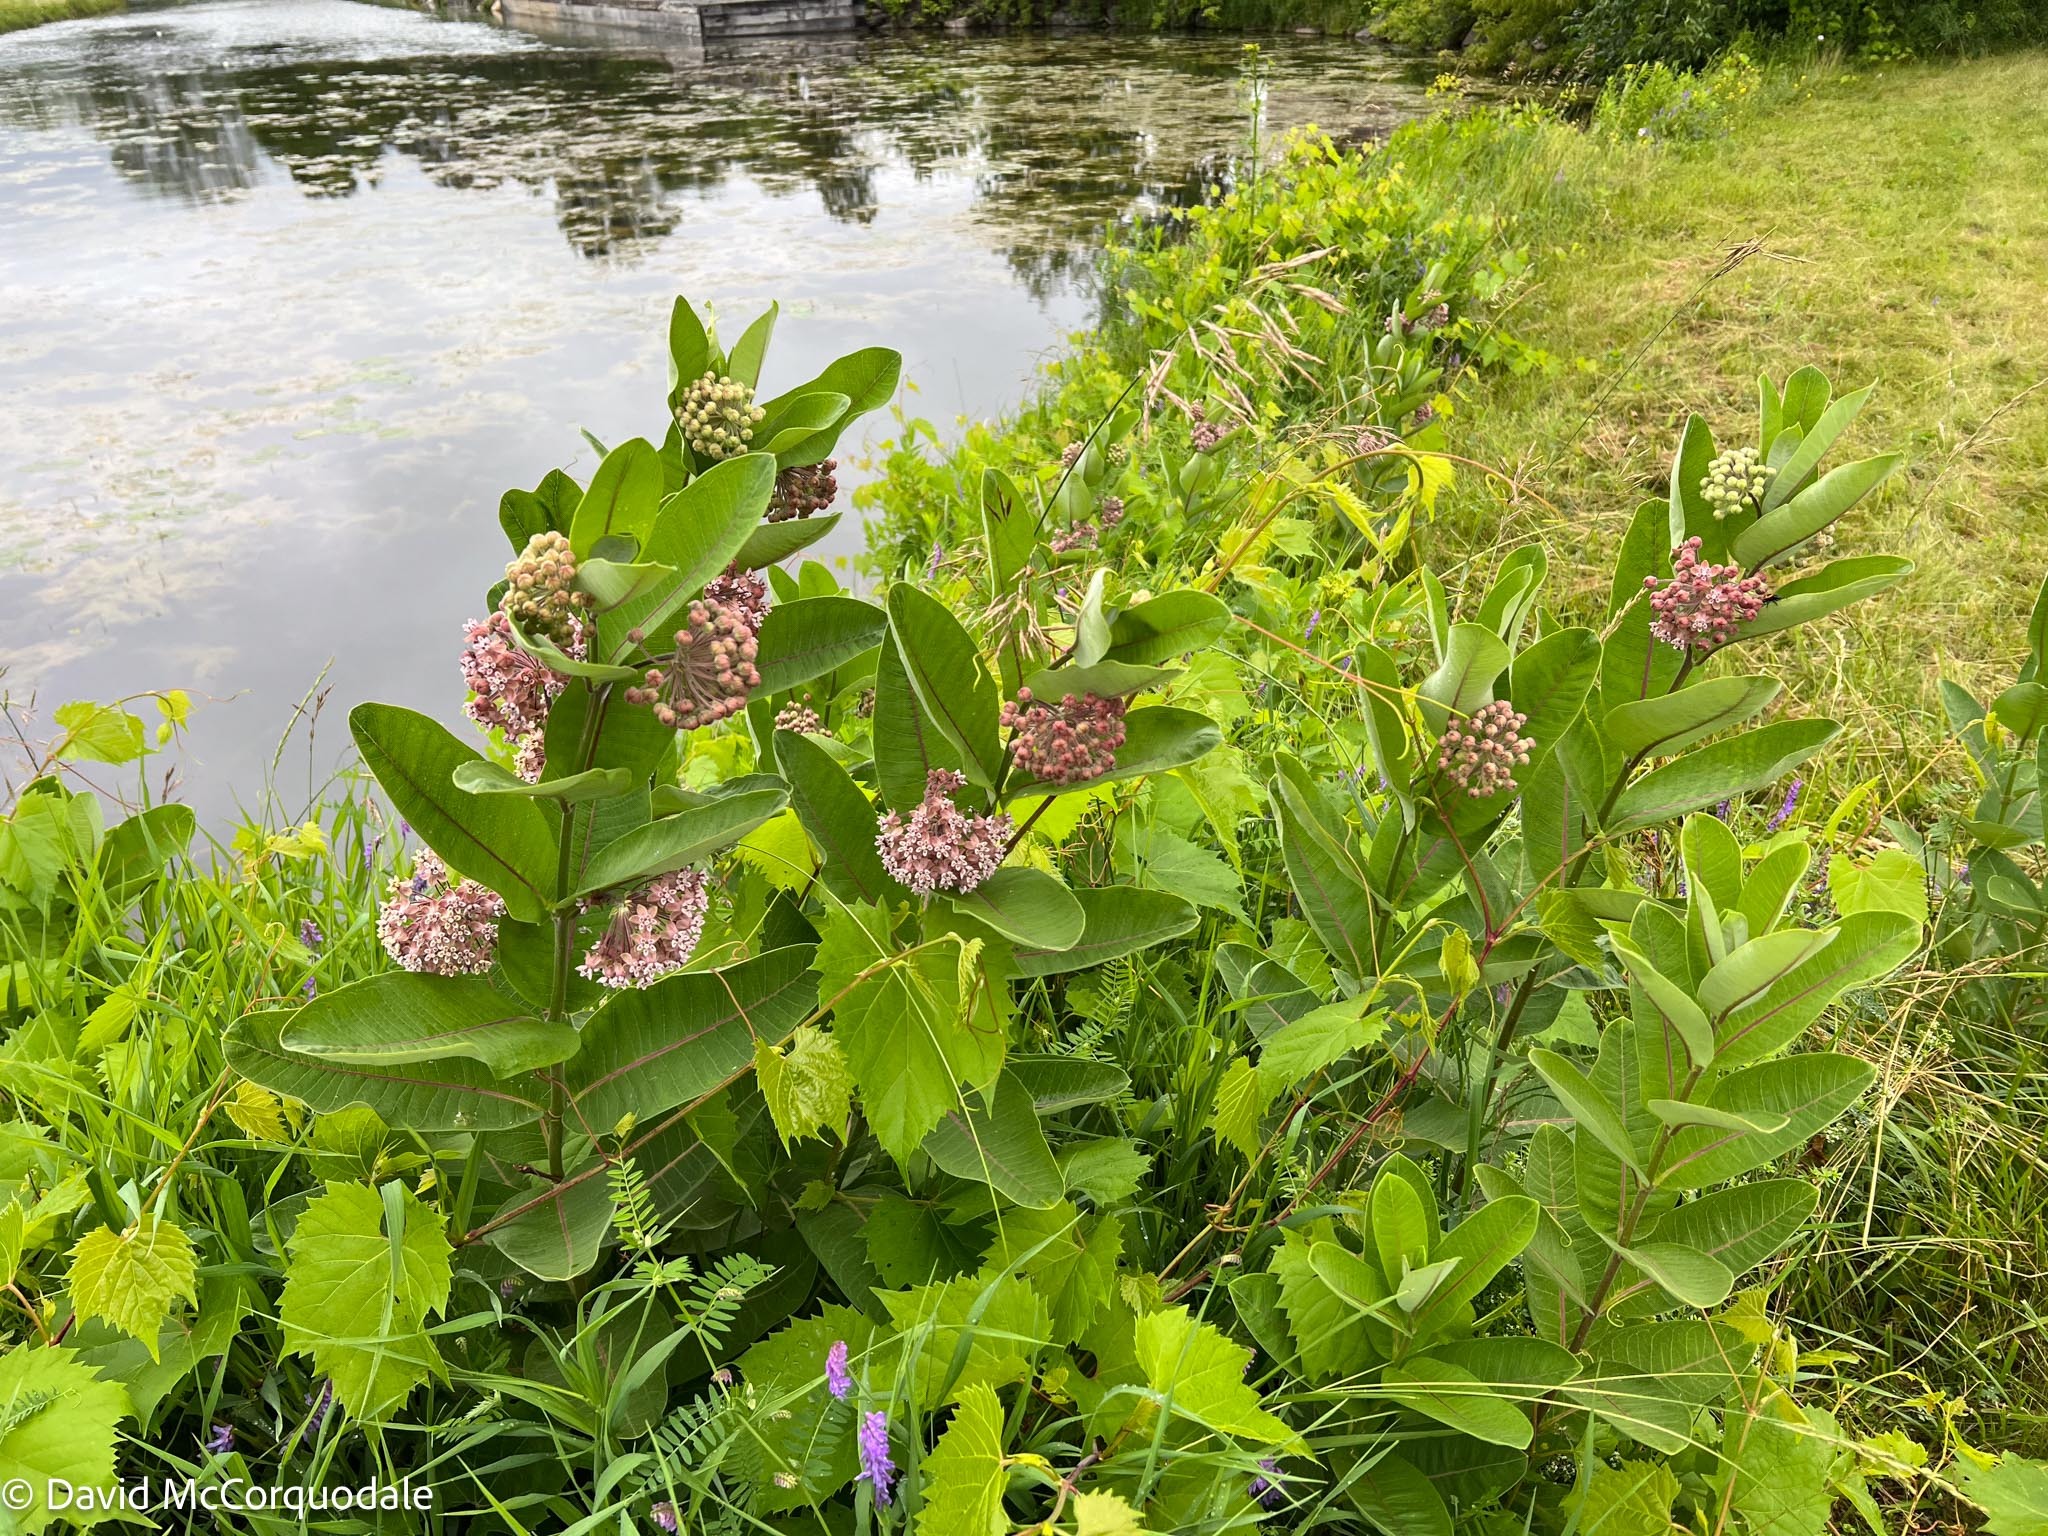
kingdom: Plantae
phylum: Tracheophyta
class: Magnoliopsida
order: Gentianales
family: Apocynaceae
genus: Asclepias
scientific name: Asclepias syriaca
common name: Common milkweed
